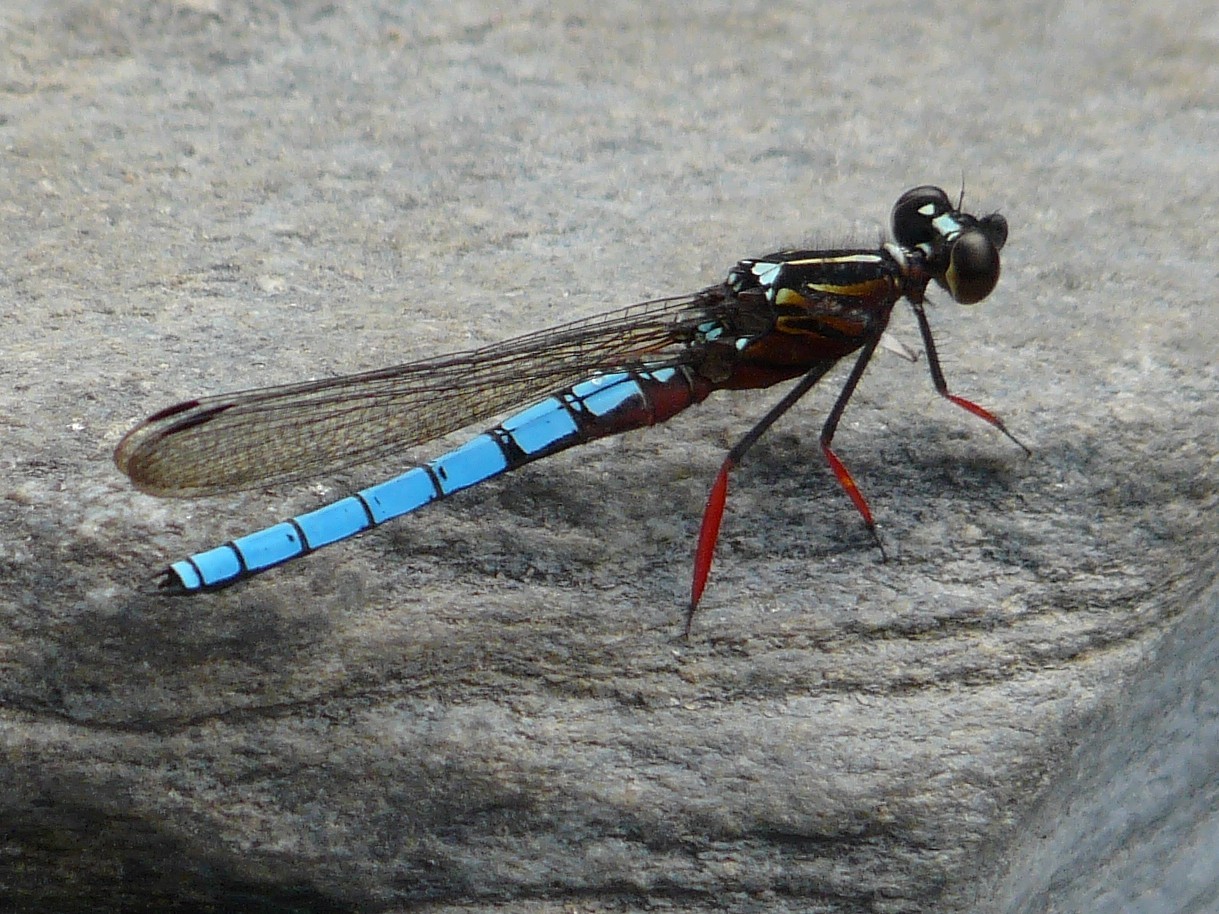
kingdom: Animalia
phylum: Arthropoda
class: Insecta
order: Odonata
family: Chlorocyphidae
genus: Platycypha
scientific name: Platycypha caligata
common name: Dancing jewel
